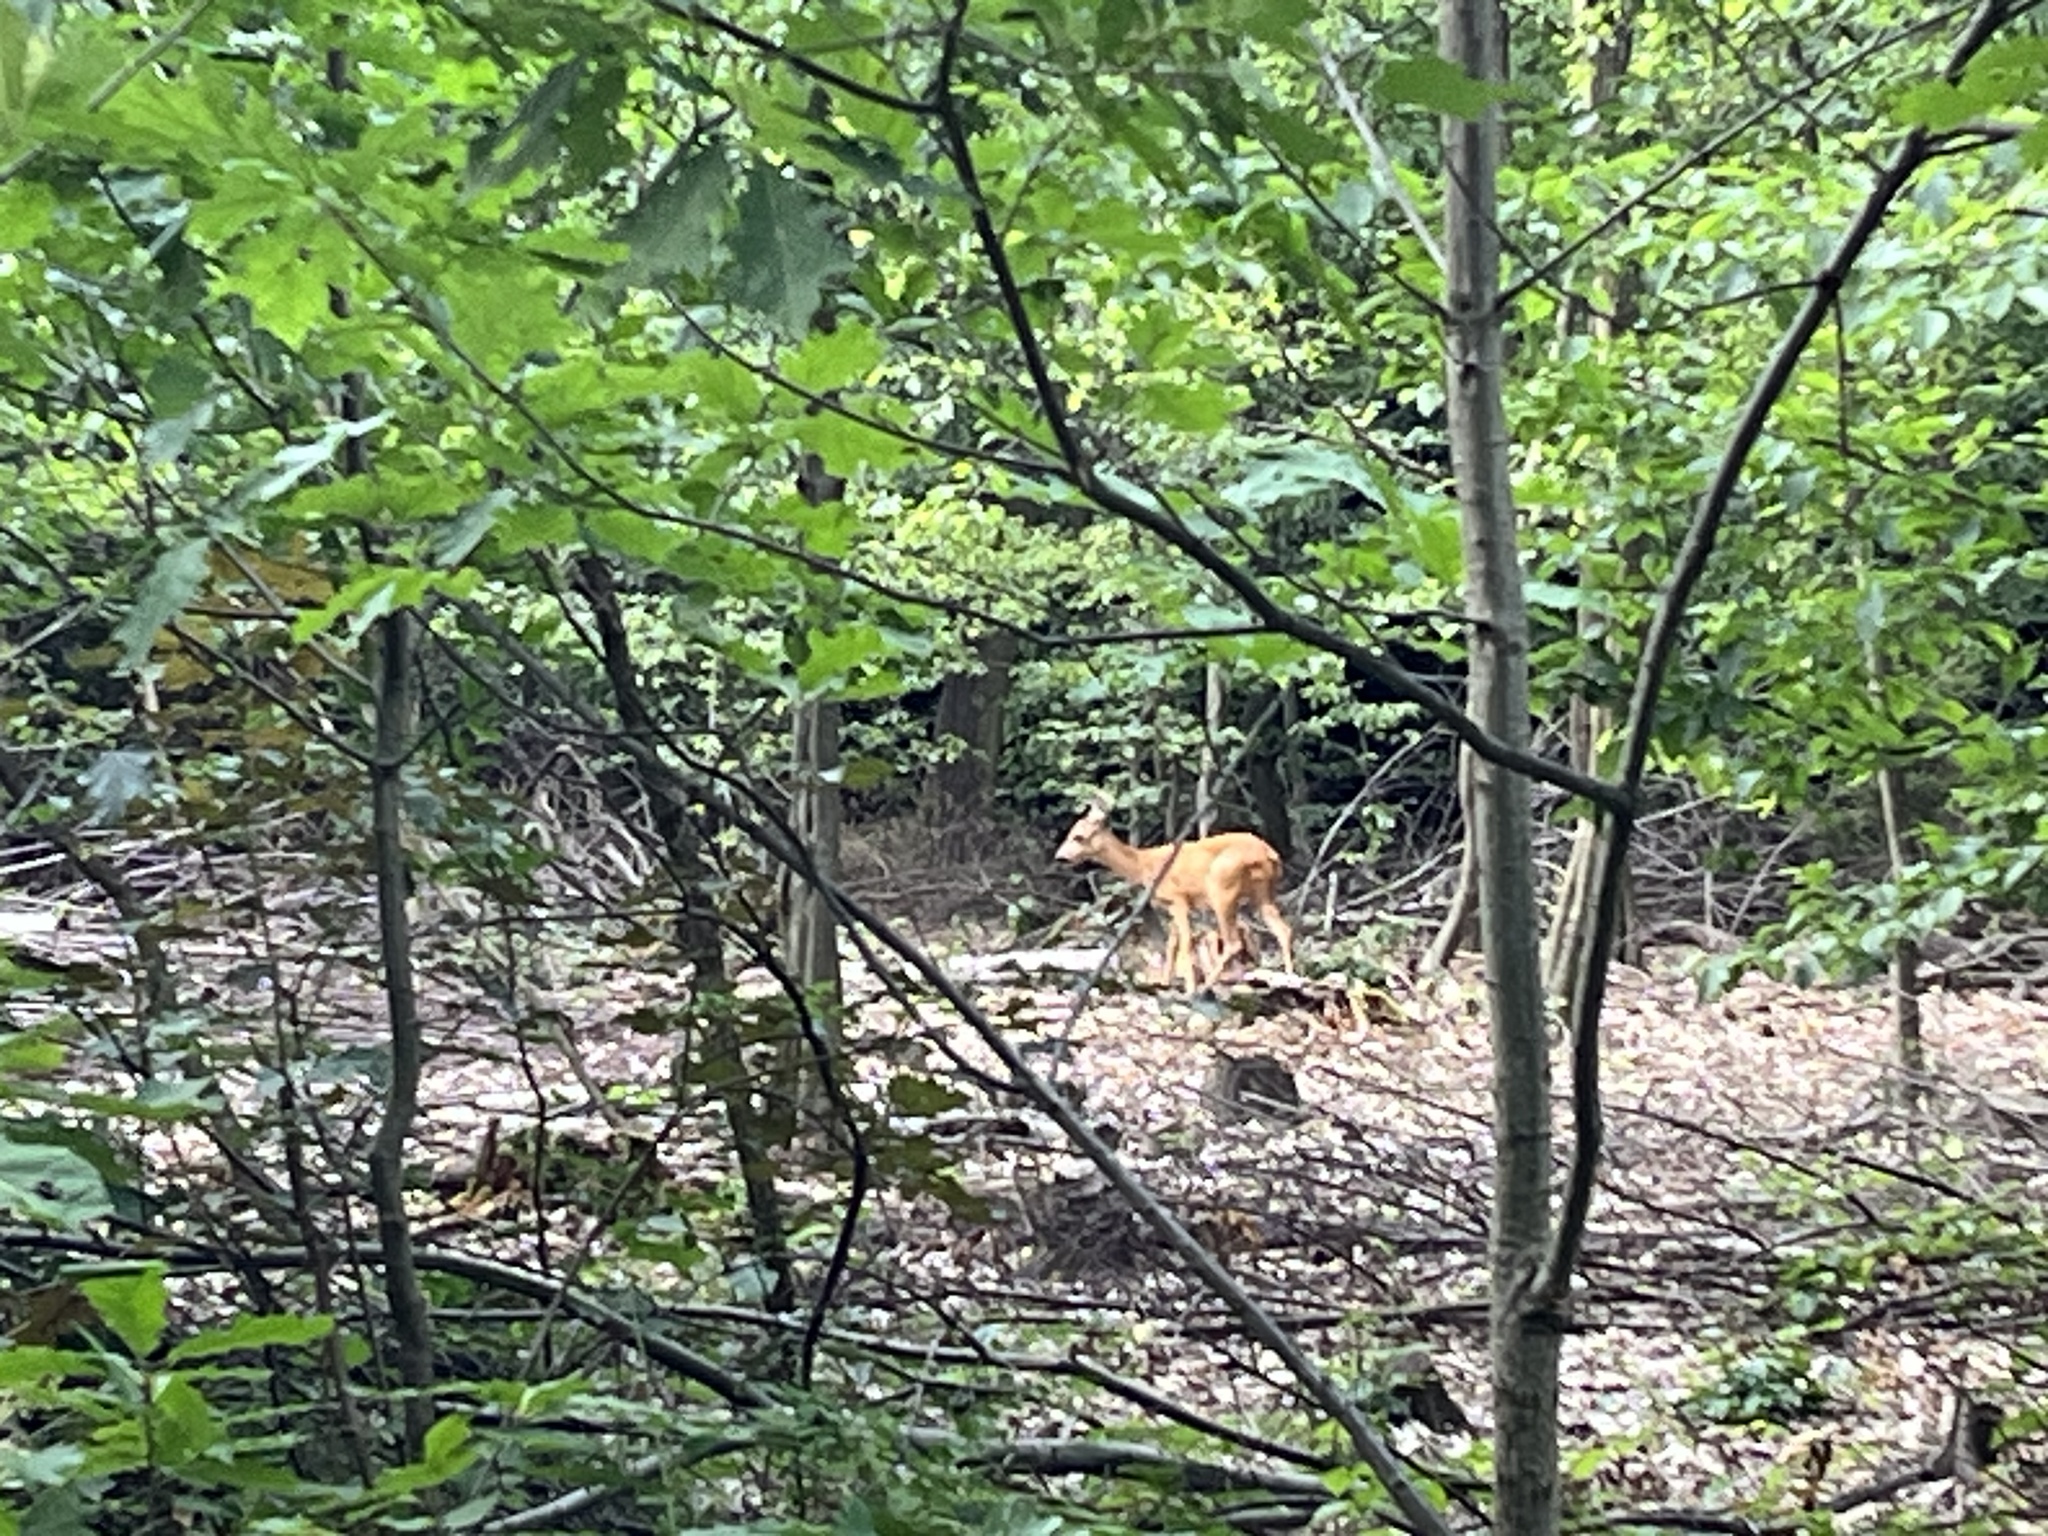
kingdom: Animalia
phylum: Chordata
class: Mammalia
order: Artiodactyla
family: Cervidae
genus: Capreolus
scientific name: Capreolus capreolus
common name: Western roe deer
